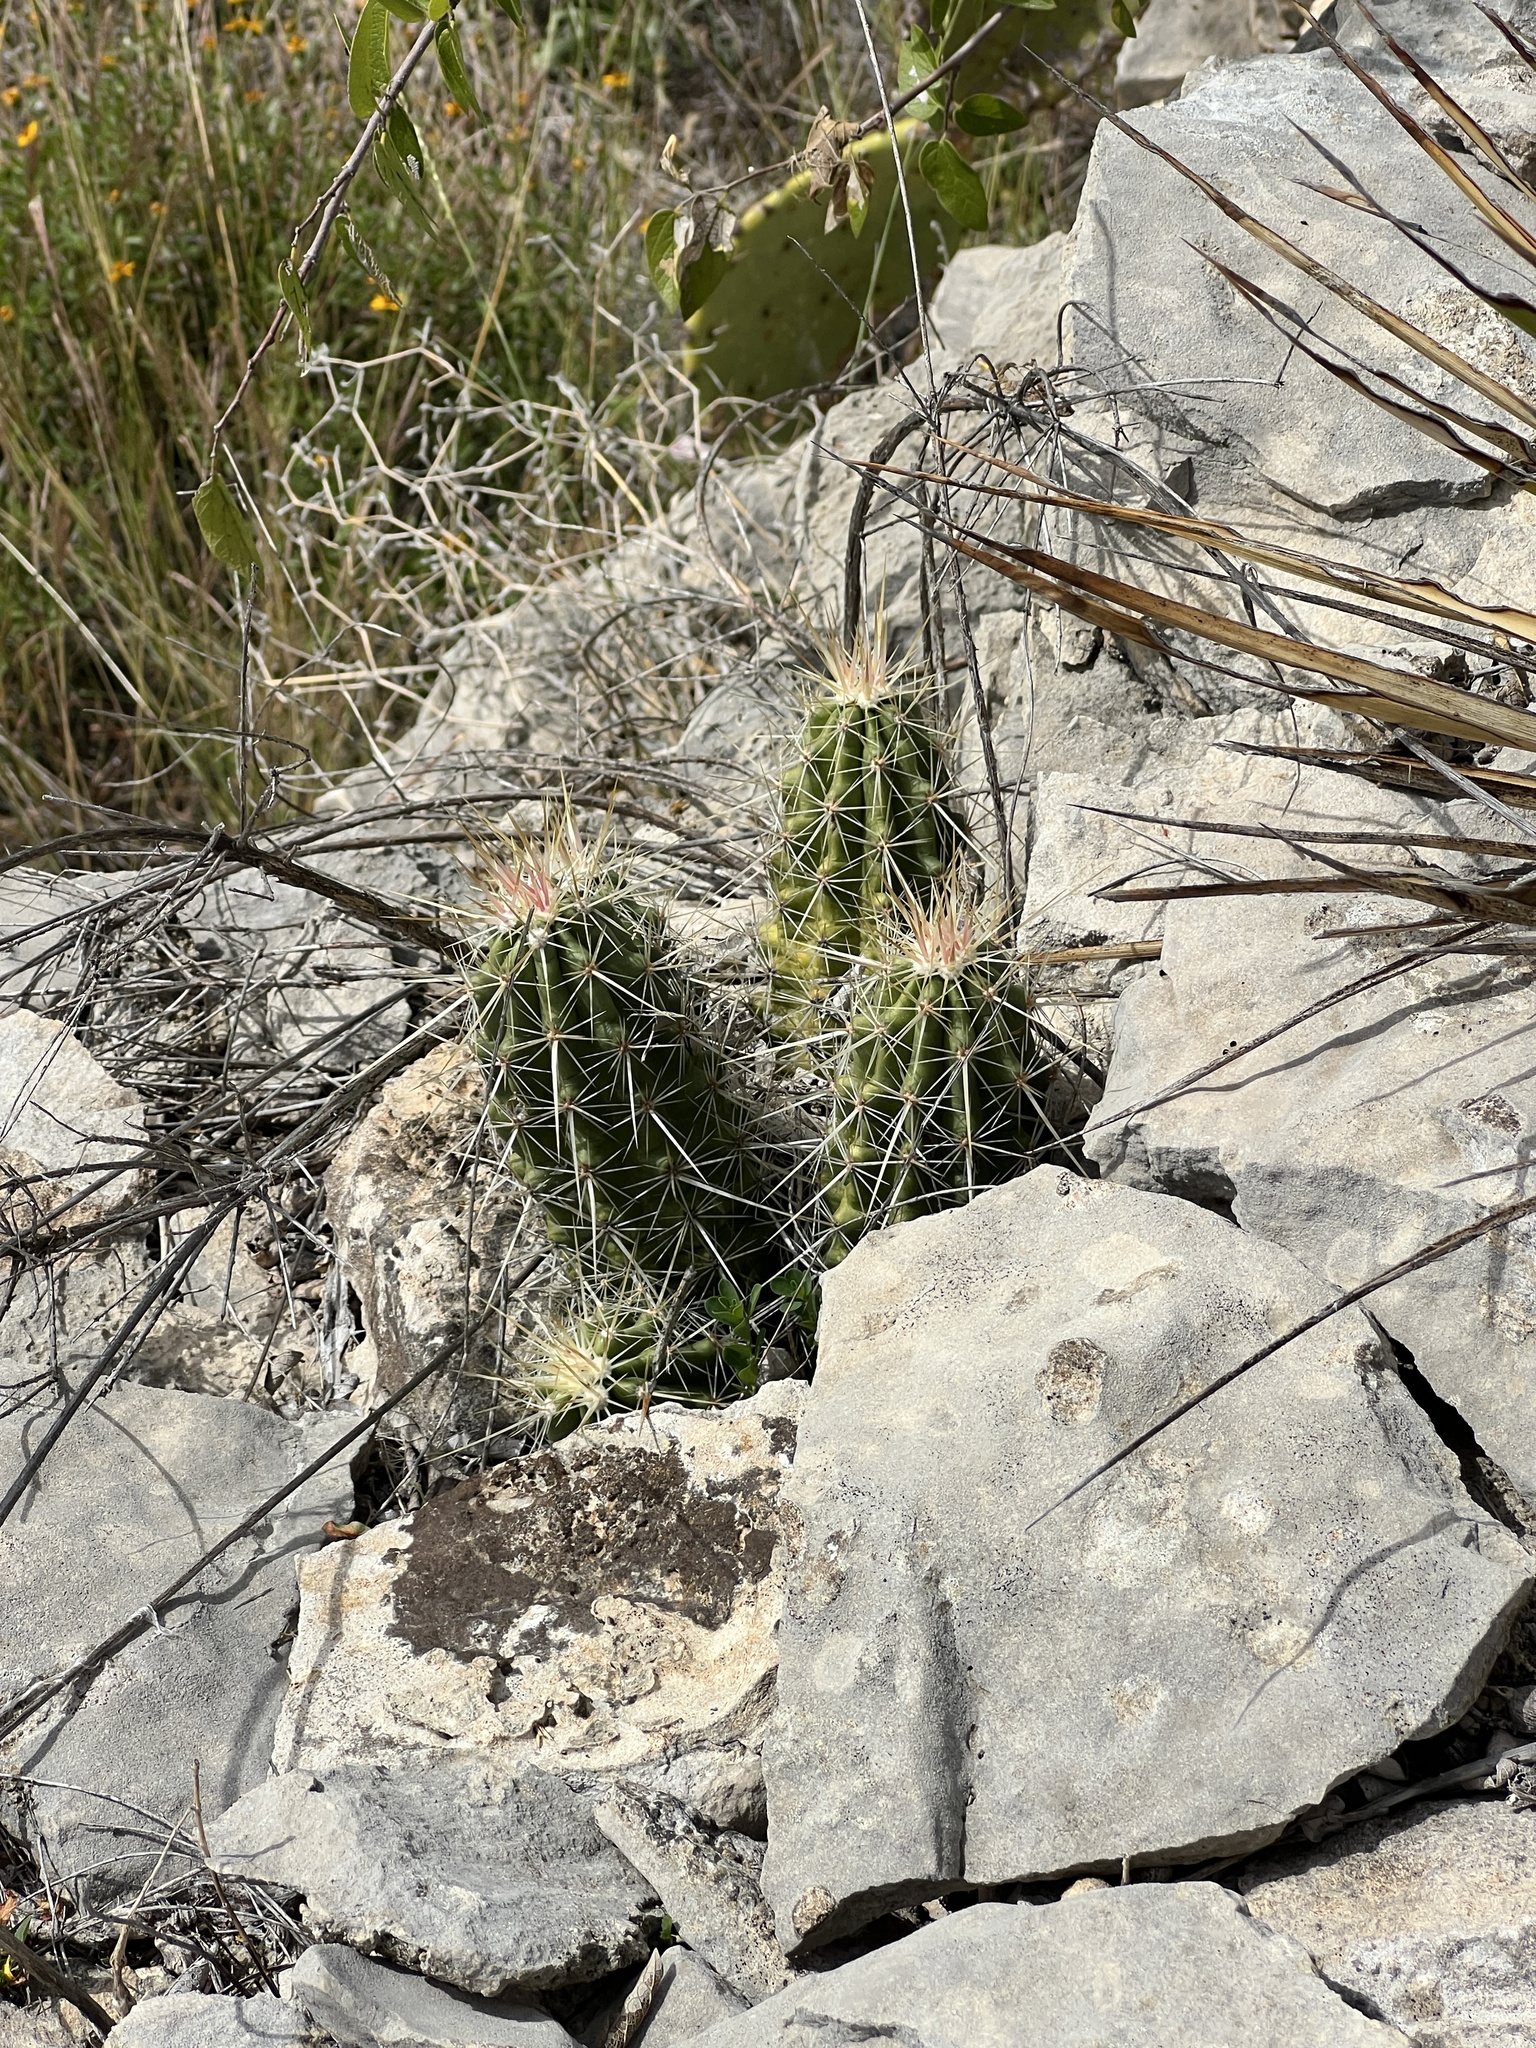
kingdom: Plantae
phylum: Tracheophyta
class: Magnoliopsida
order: Caryophyllales
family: Cactaceae
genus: Echinocereus
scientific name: Echinocereus enneacanthus
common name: Pitaya
